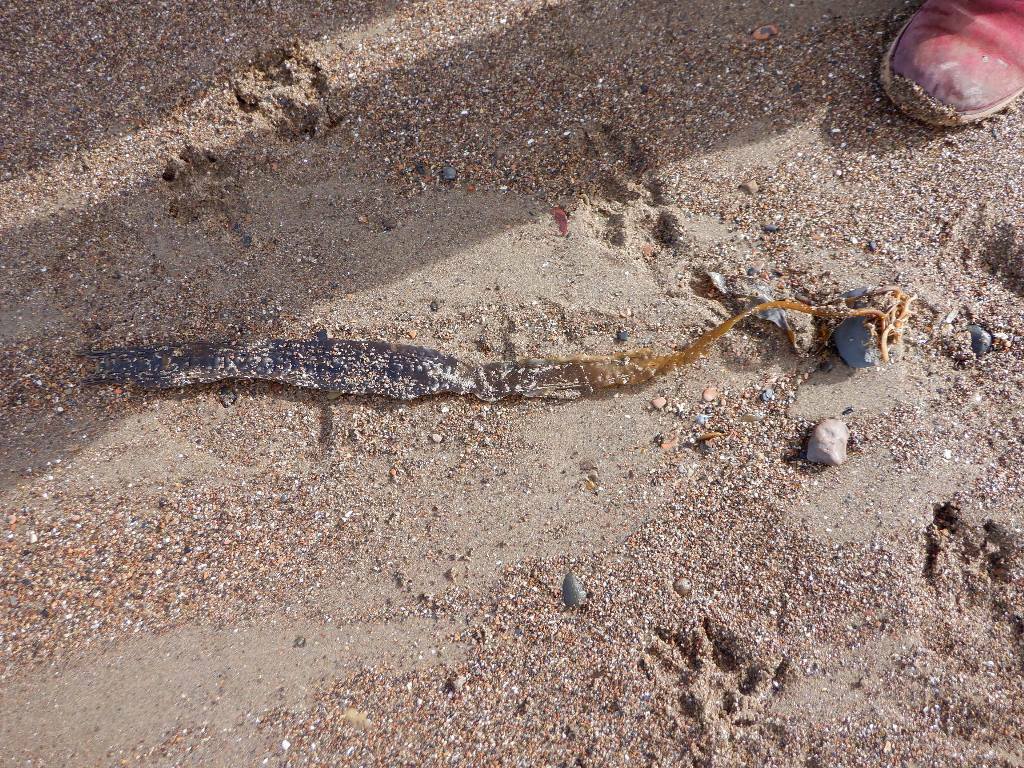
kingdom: Chromista
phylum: Ochrophyta
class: Phaeophyceae
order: Laminariales
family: Laminariaceae
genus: Saccharina
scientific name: Saccharina latissima
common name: Poor man's weather glass
